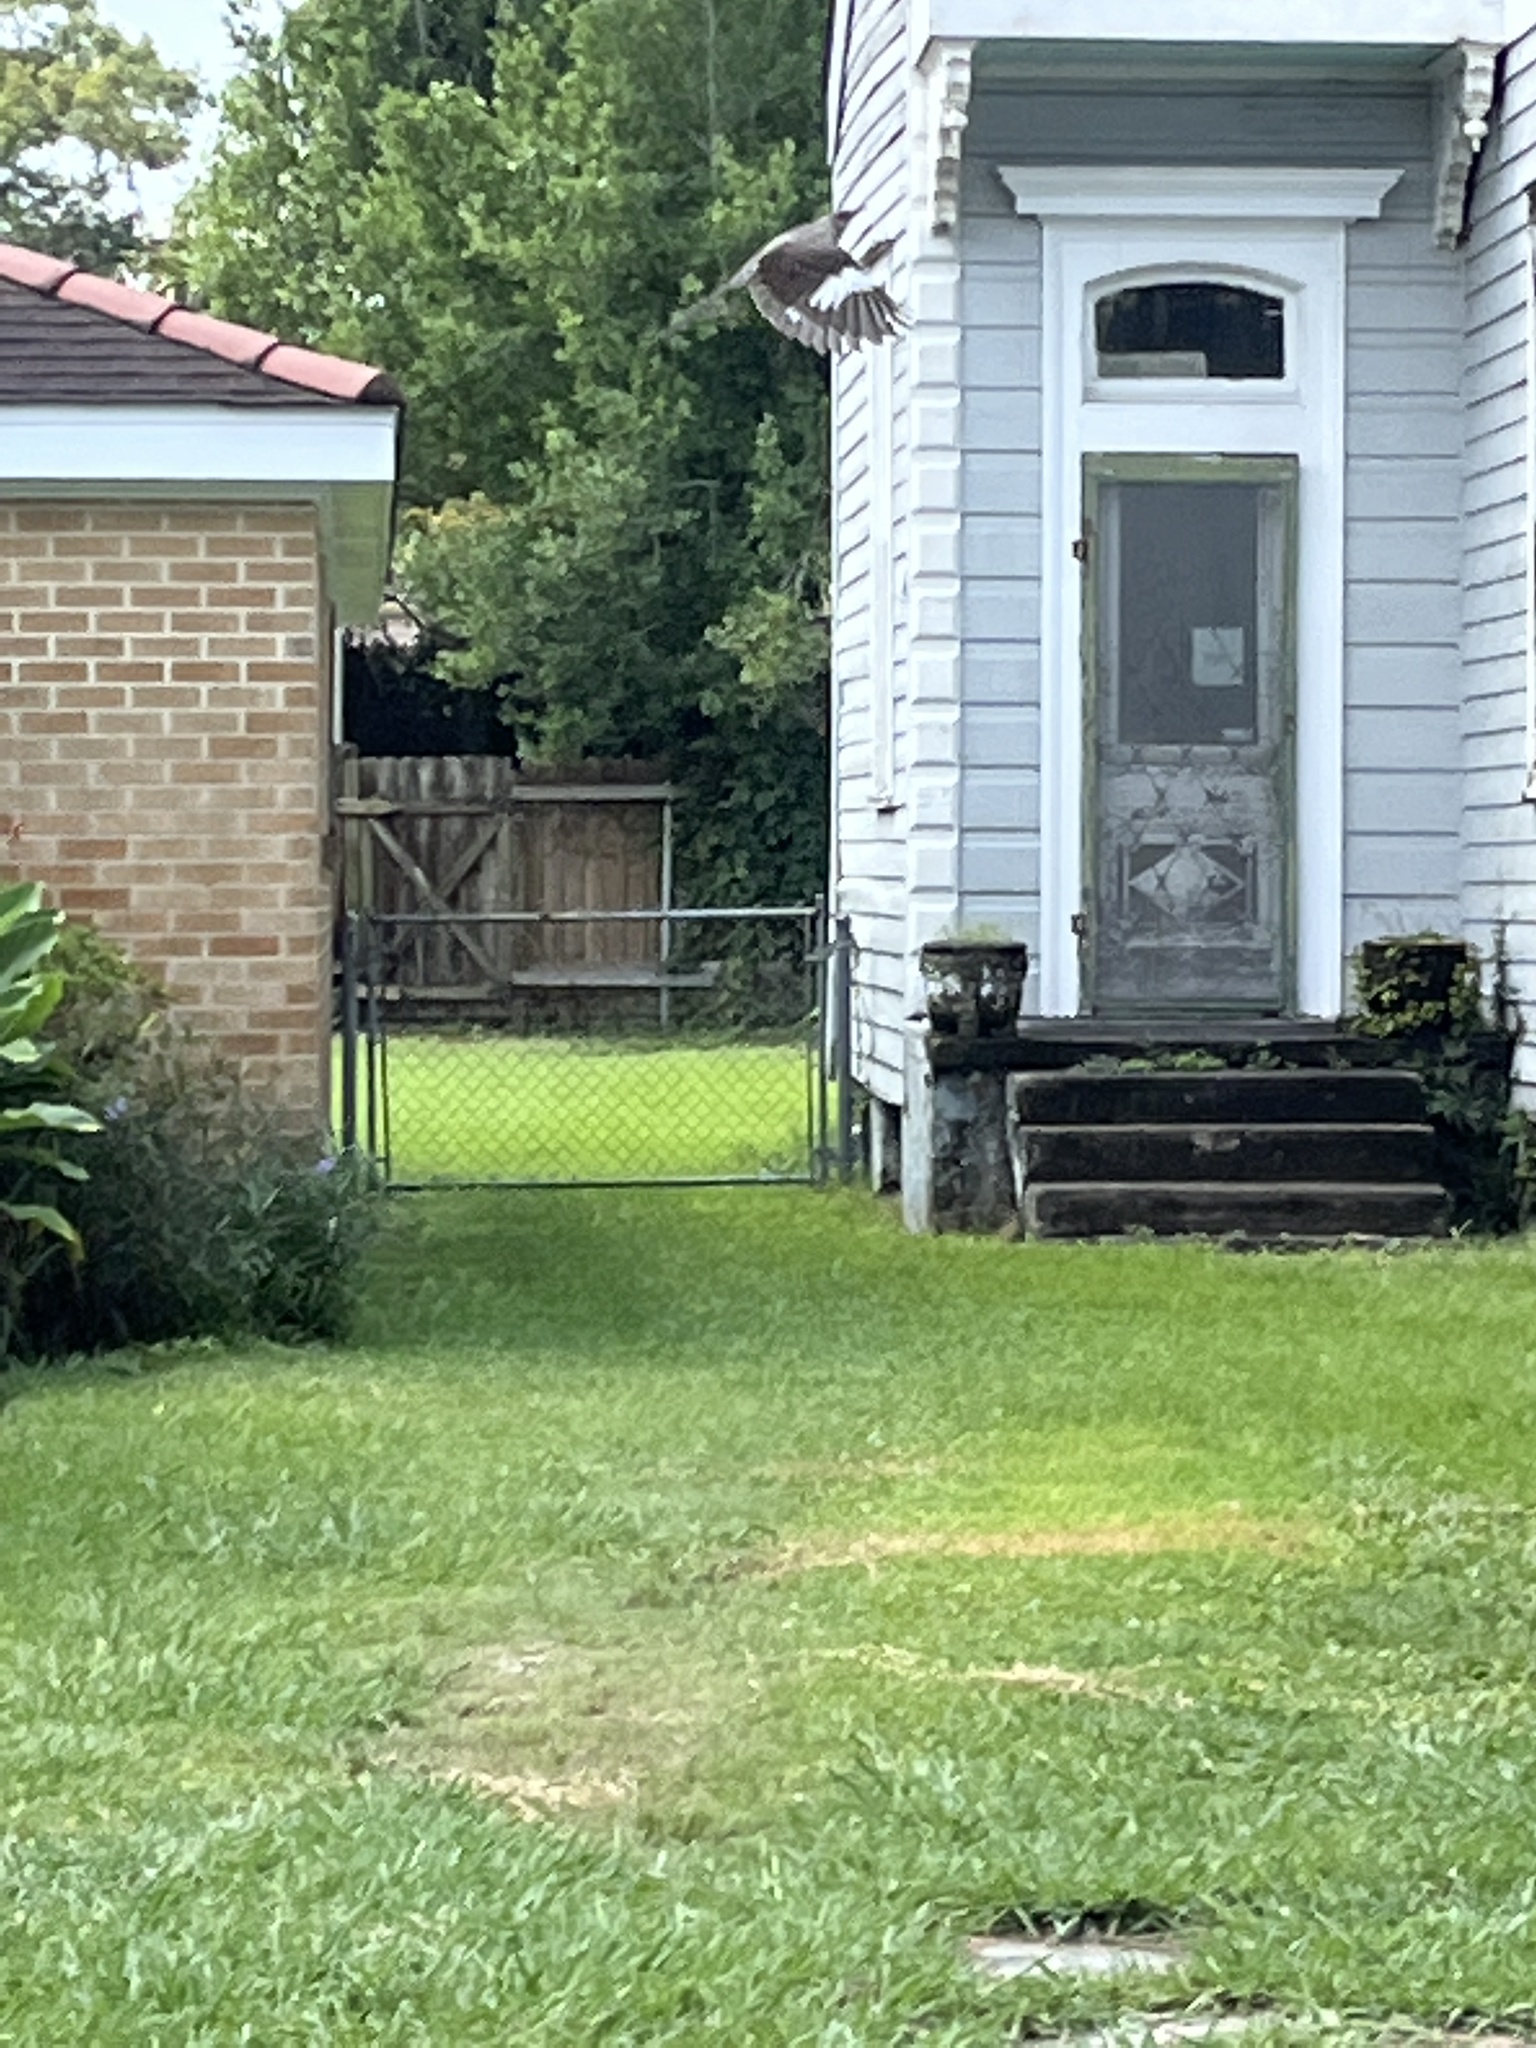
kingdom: Animalia
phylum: Chordata
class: Aves
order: Passeriformes
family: Mimidae
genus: Mimus
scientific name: Mimus polyglottos
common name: Northern mockingbird
